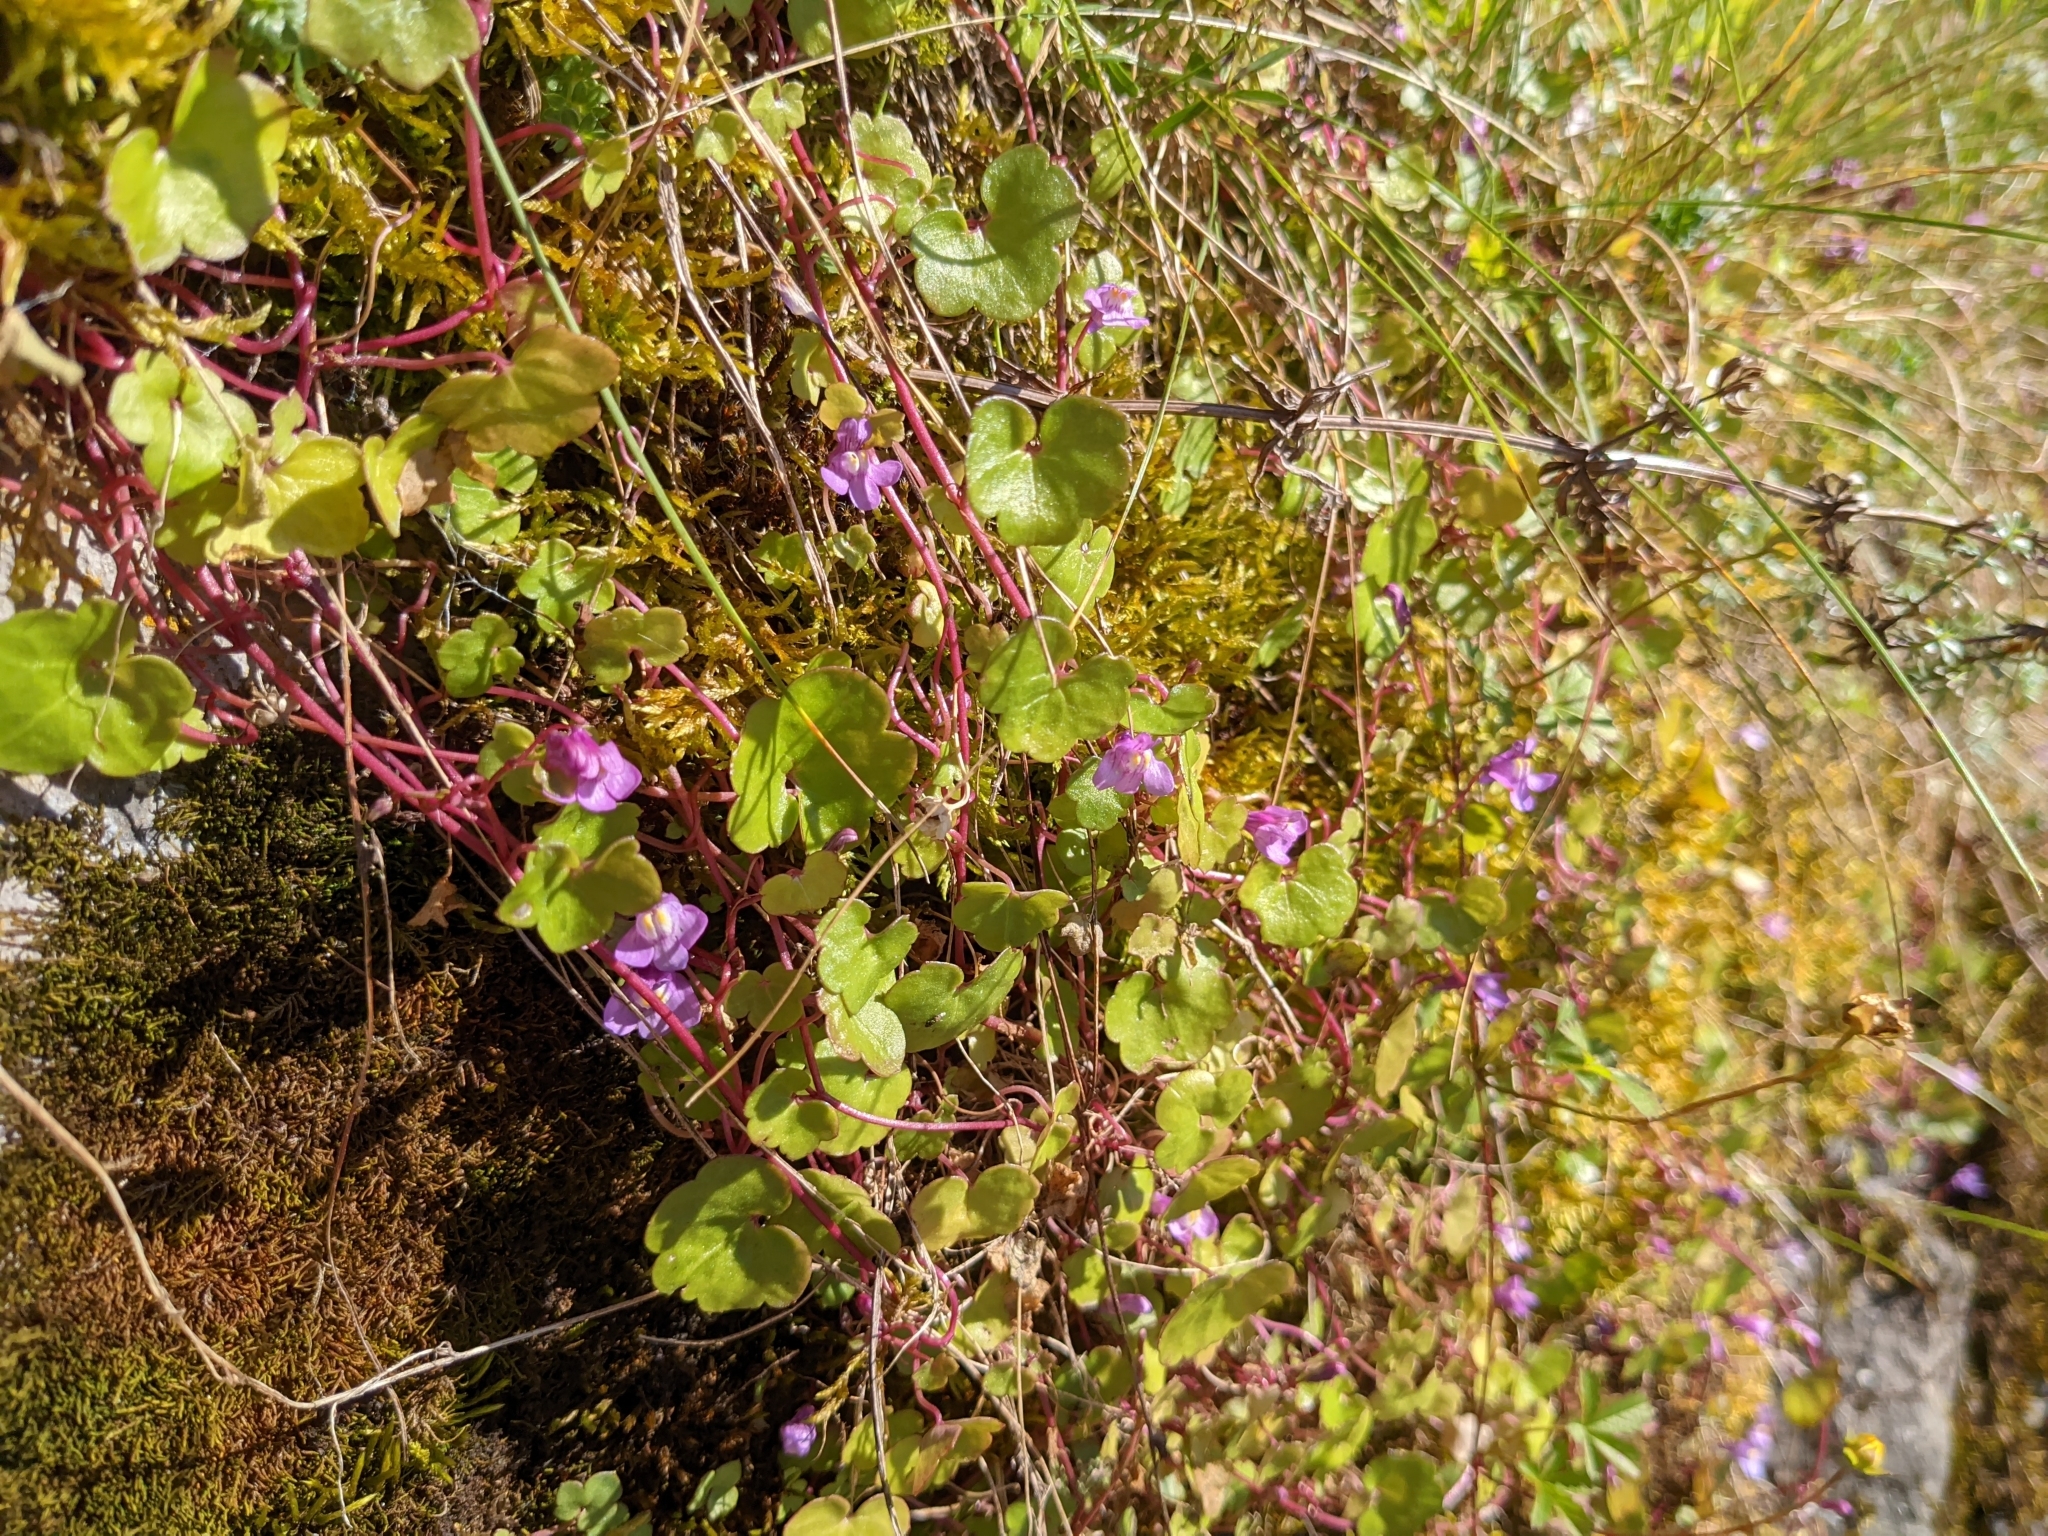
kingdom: Plantae
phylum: Tracheophyta
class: Magnoliopsida
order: Lamiales
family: Plantaginaceae
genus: Cymbalaria
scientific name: Cymbalaria muralis
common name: Ivy-leaved toadflax
